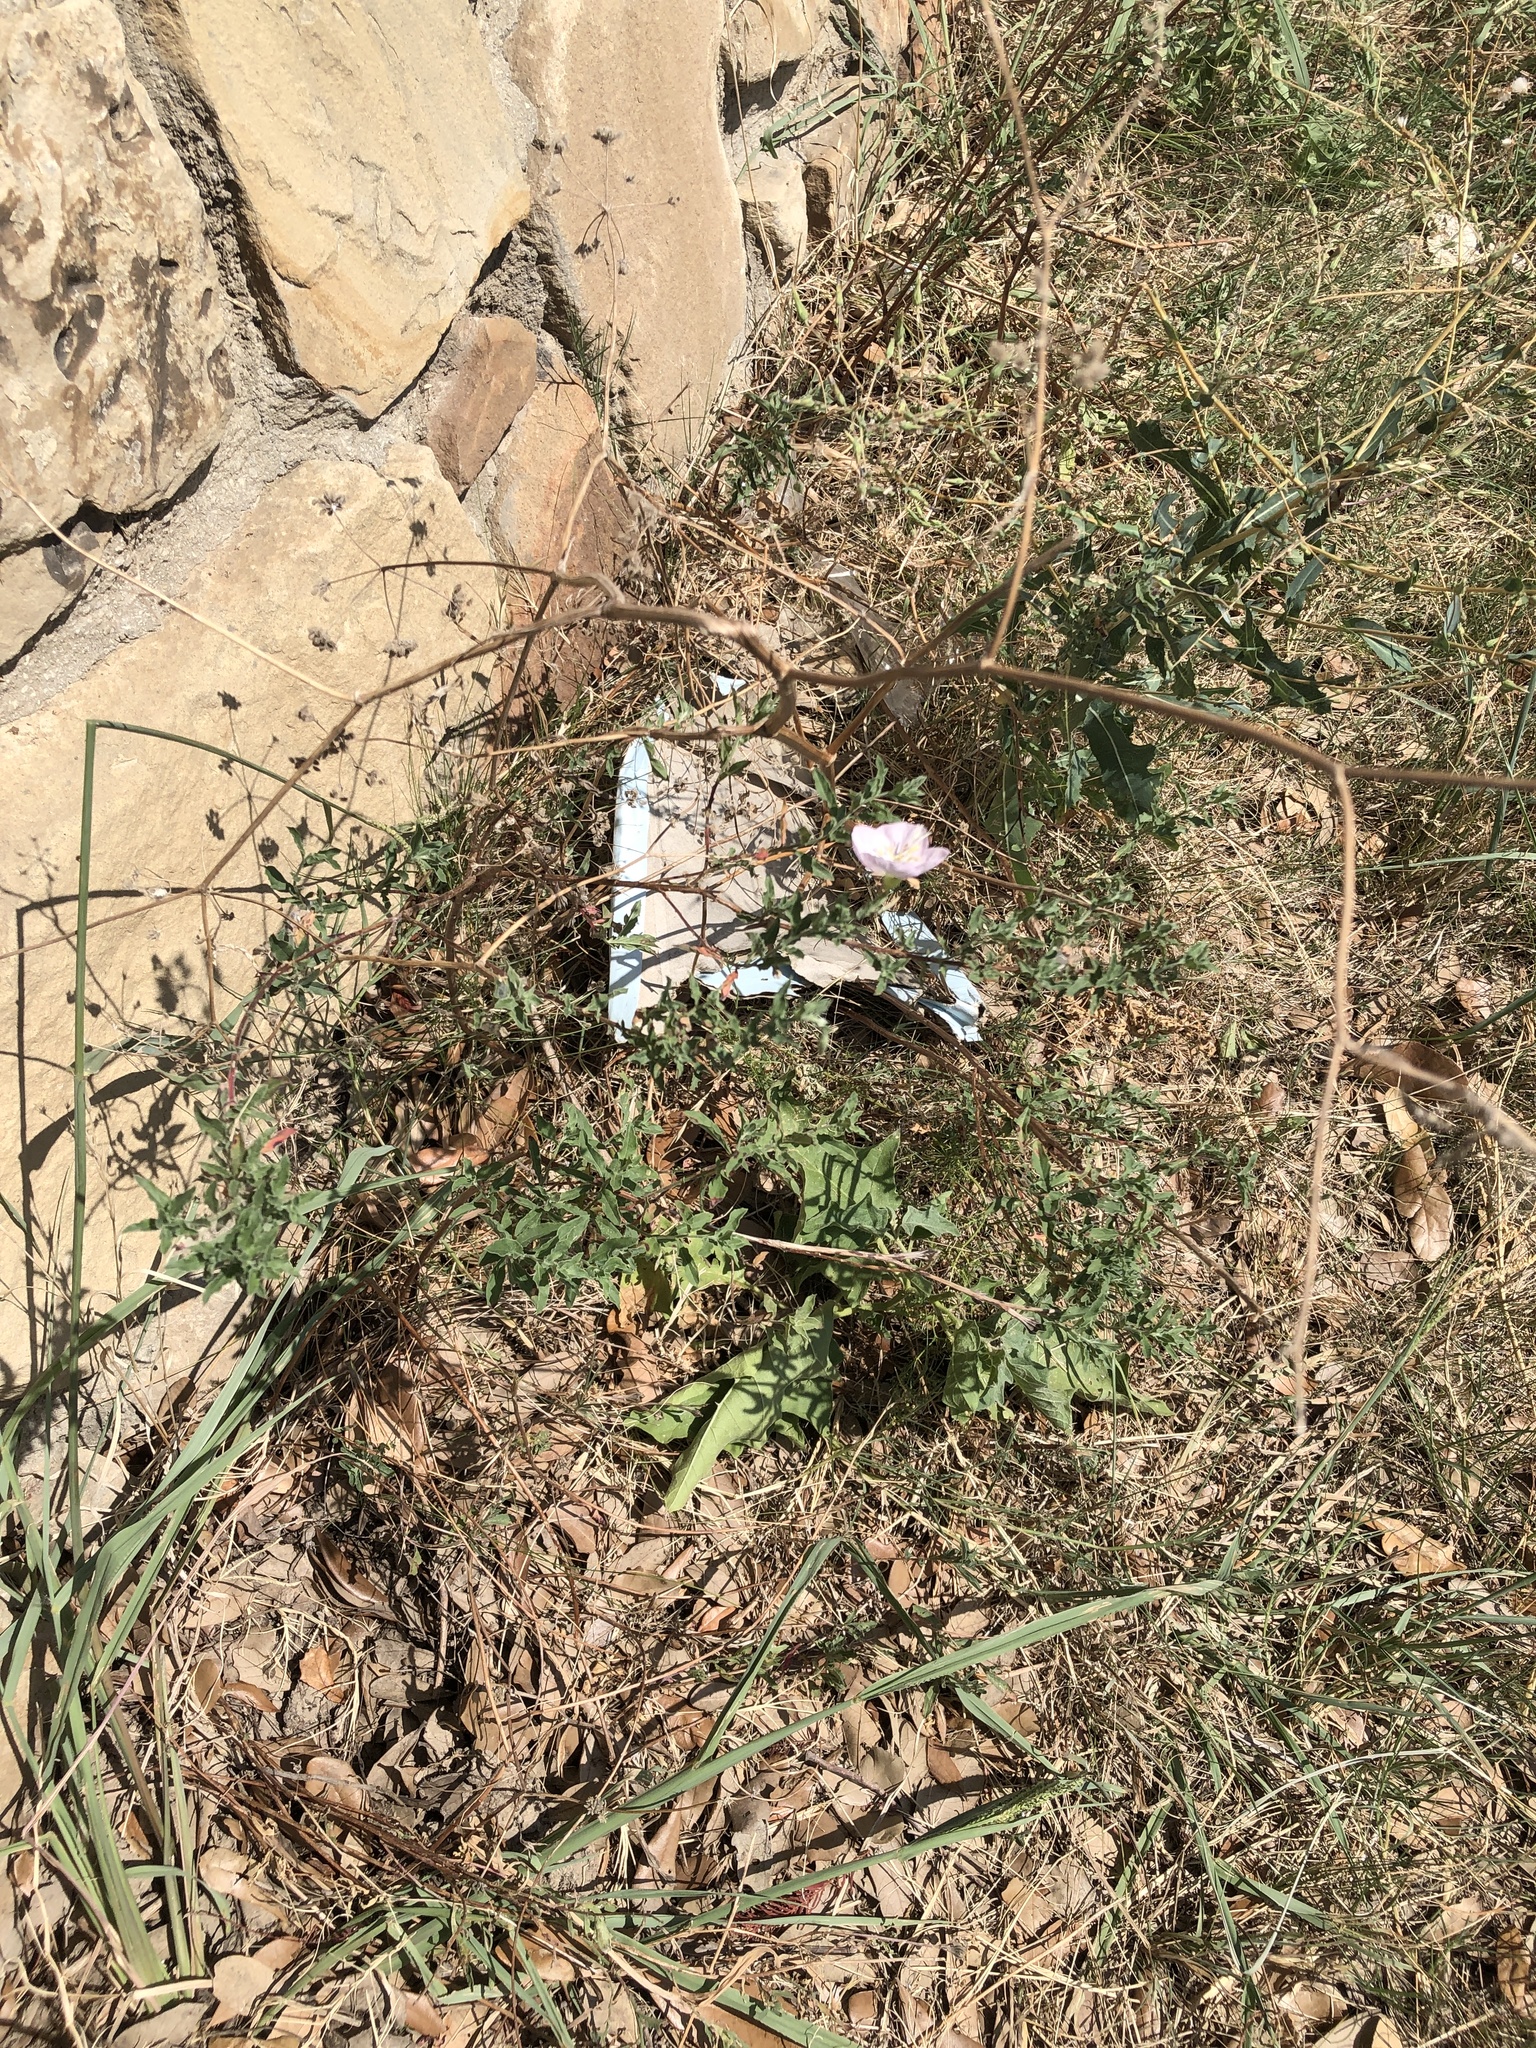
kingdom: Plantae
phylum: Tracheophyta
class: Magnoliopsida
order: Myrtales
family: Onagraceae
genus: Oenothera
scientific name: Oenothera speciosa
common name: White evening-primrose
